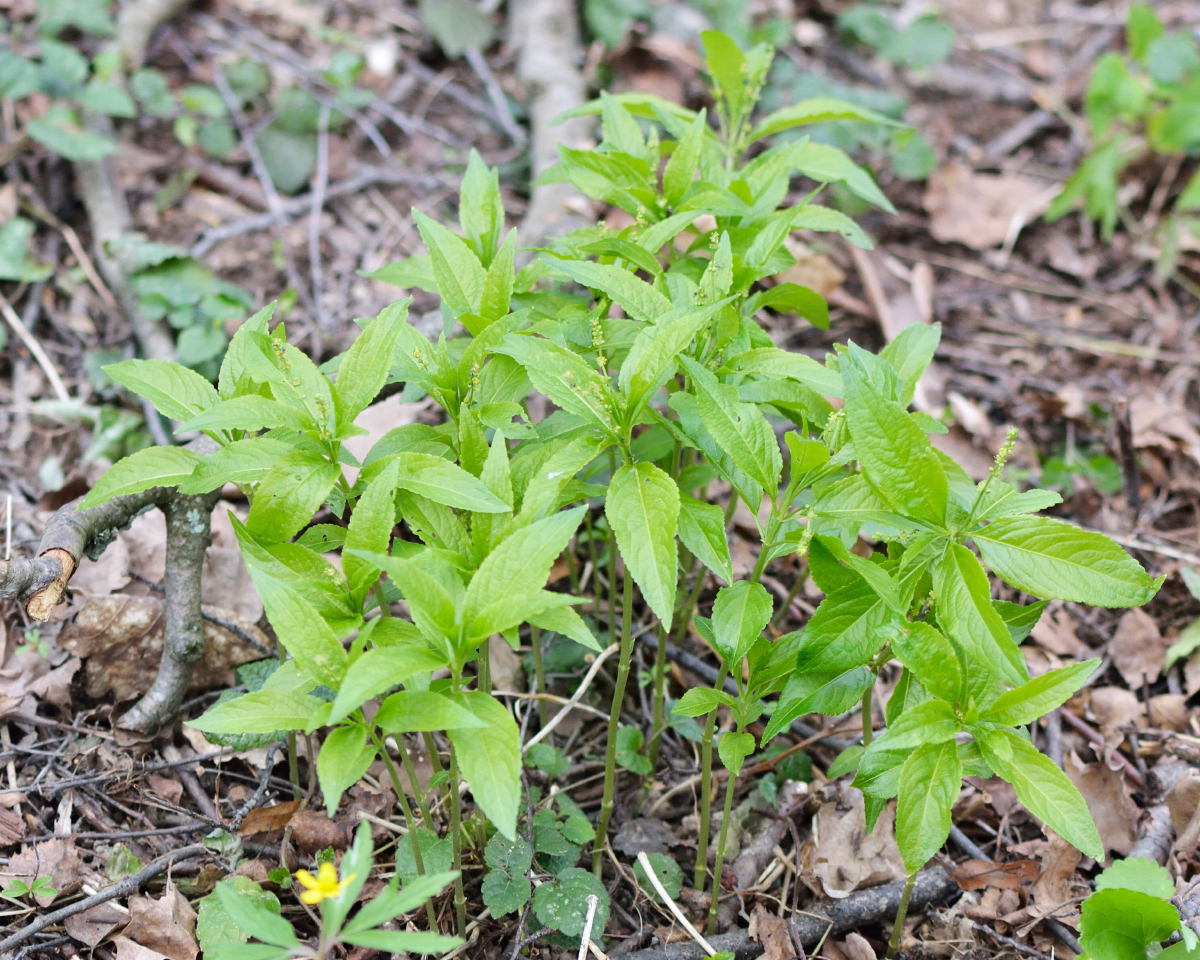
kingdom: Plantae
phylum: Tracheophyta
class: Magnoliopsida
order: Malpighiales
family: Euphorbiaceae
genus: Mercurialis
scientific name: Mercurialis perennis
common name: Dog mercury
